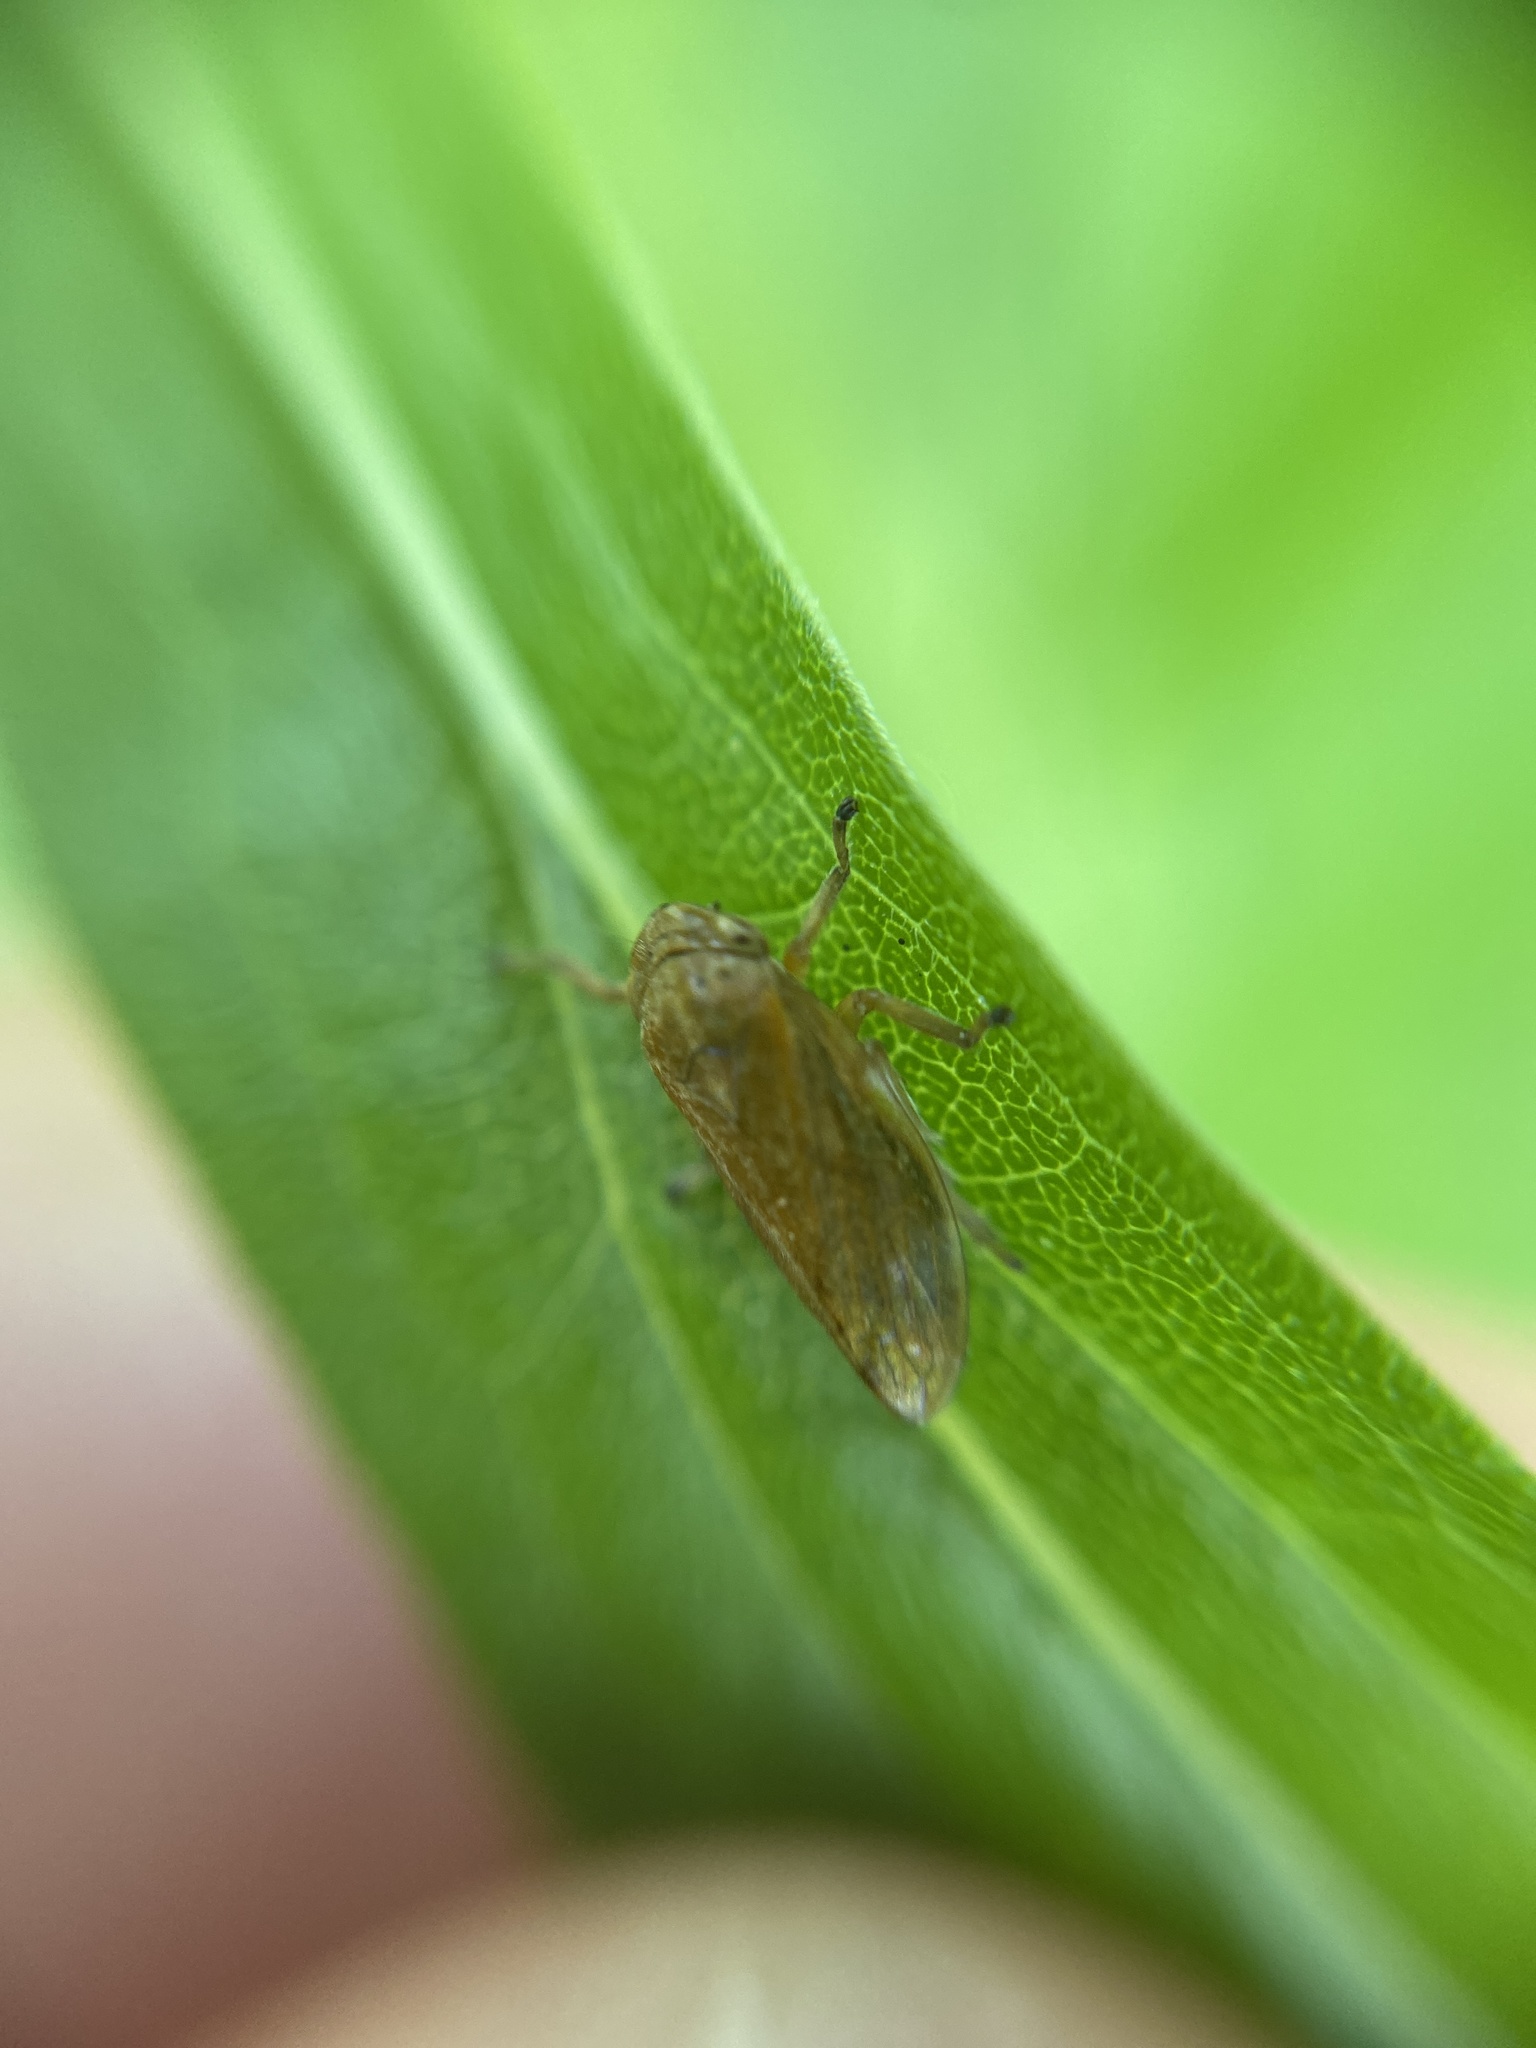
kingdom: Animalia
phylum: Arthropoda
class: Insecta
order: Hemiptera
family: Aphrophoridae
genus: Philaenus
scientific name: Philaenus spumarius
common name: Meadow spittlebug
